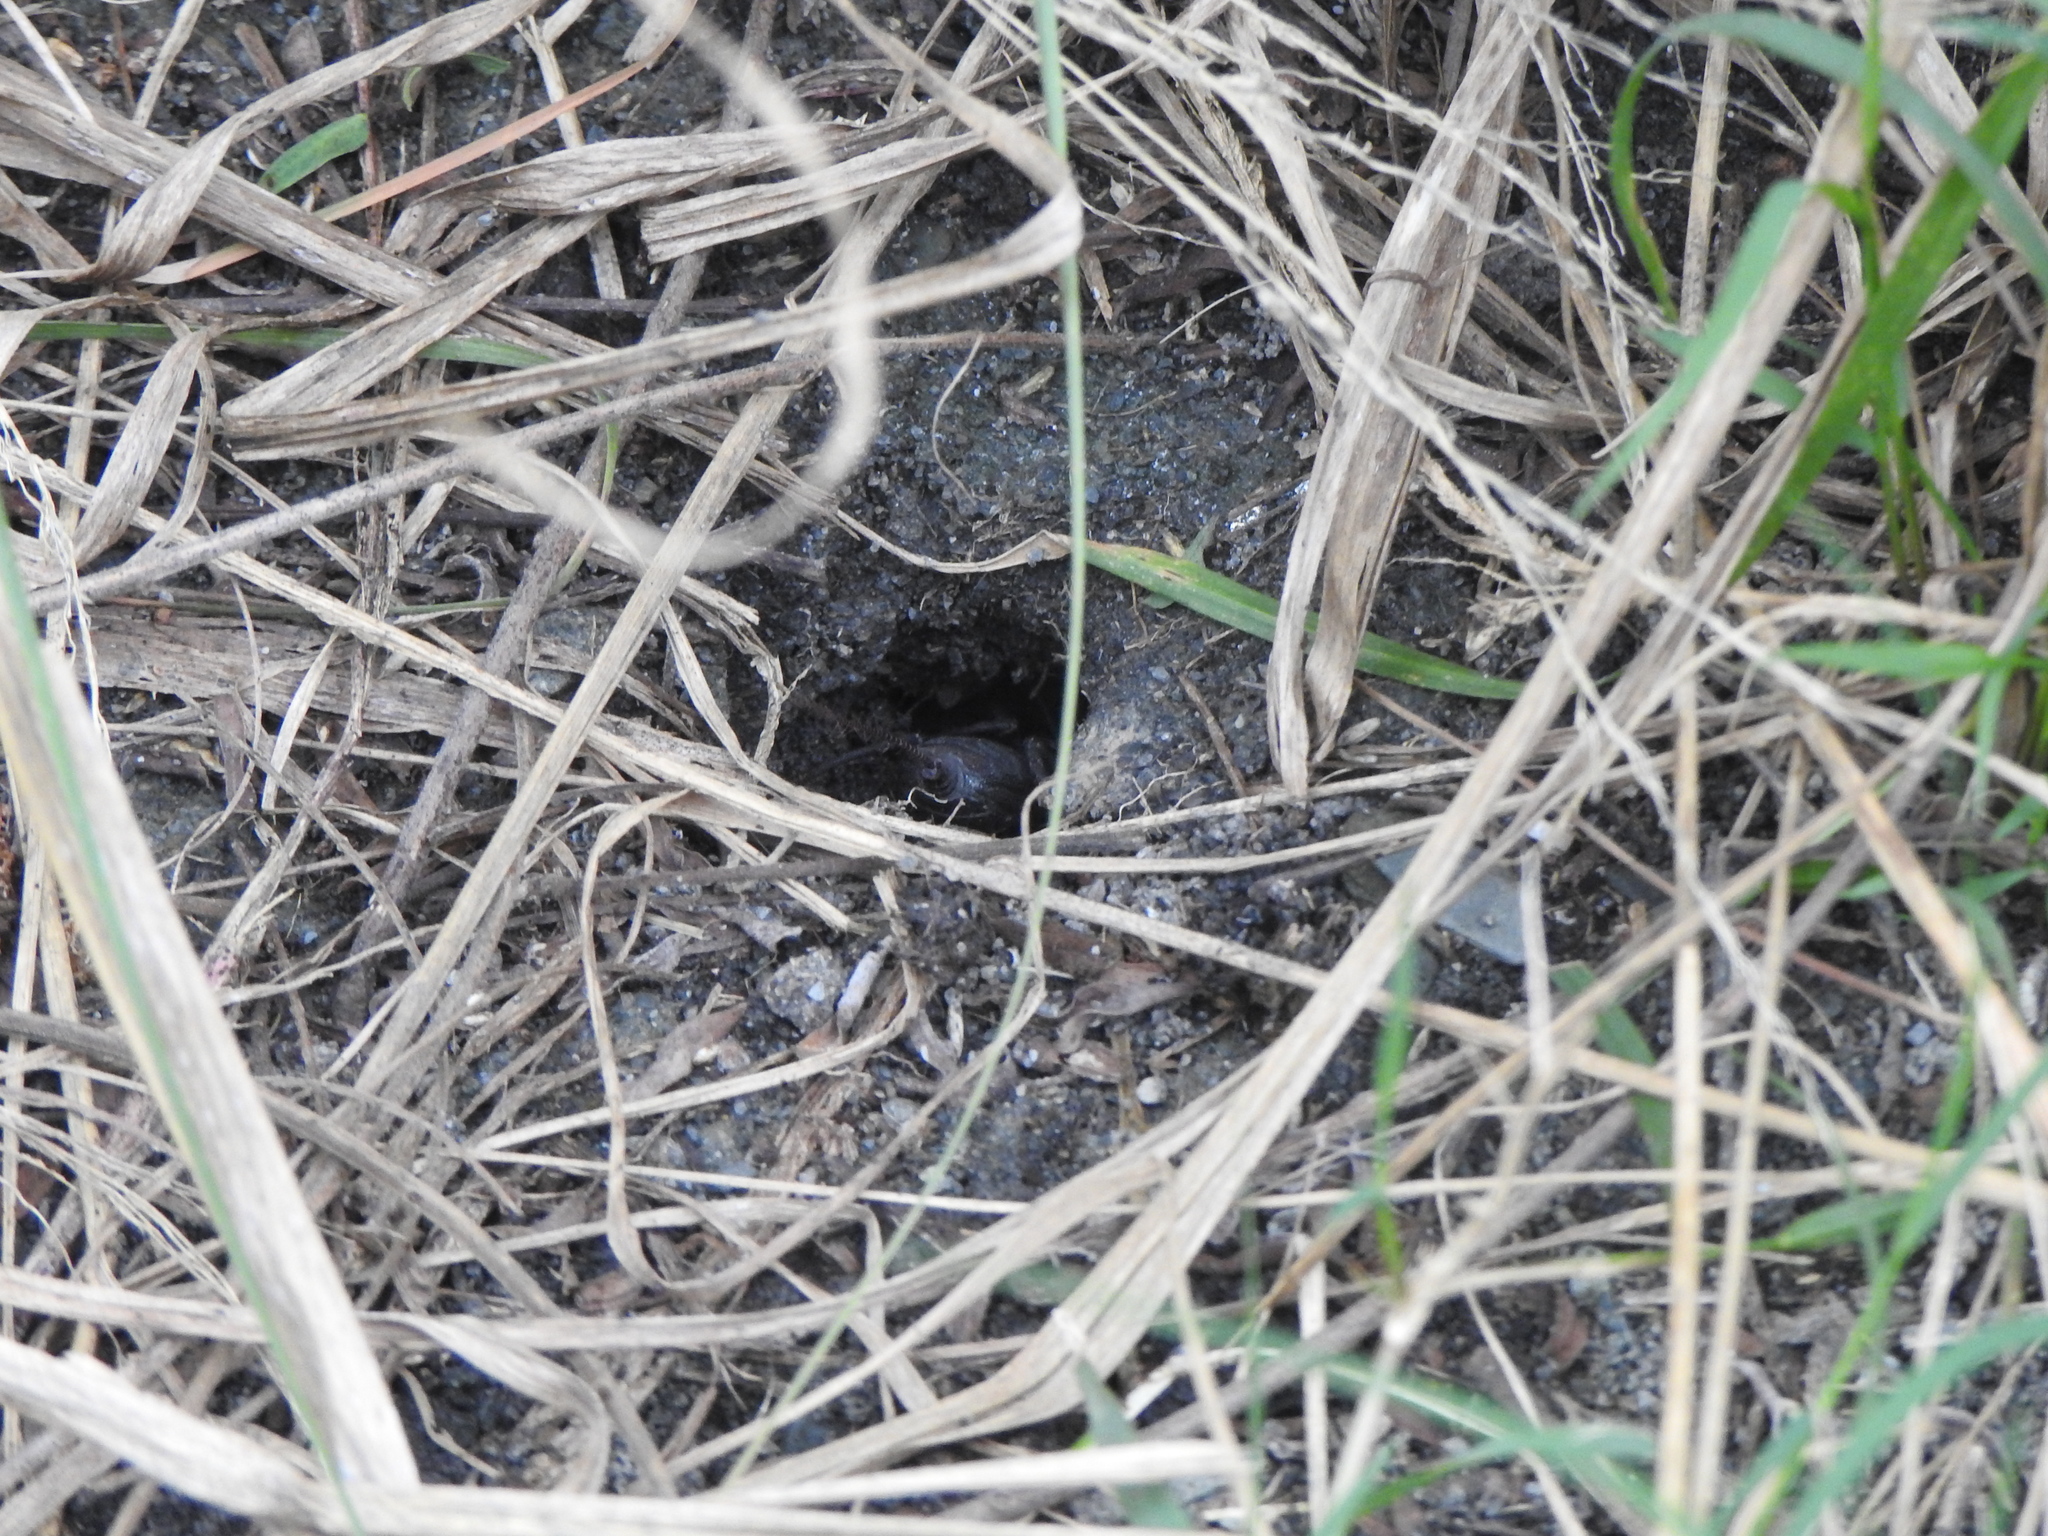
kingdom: Animalia
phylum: Arthropoda
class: Arachnida
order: Uropygi
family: Thelyphonidae
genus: Typopeltis
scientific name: Typopeltis crucifer
